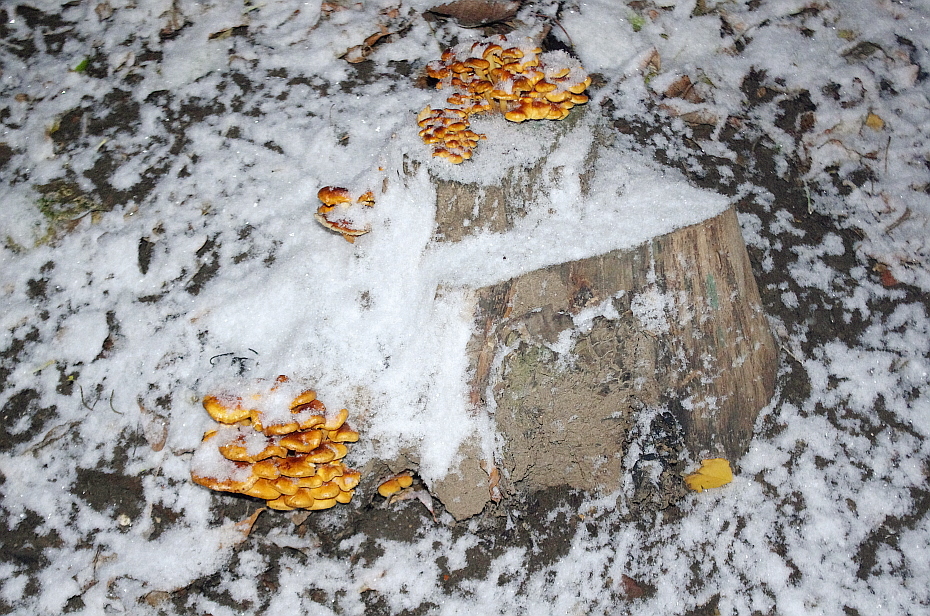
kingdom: Fungi
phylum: Basidiomycota
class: Agaricomycetes
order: Agaricales
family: Physalacriaceae
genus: Flammulina
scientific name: Flammulina
